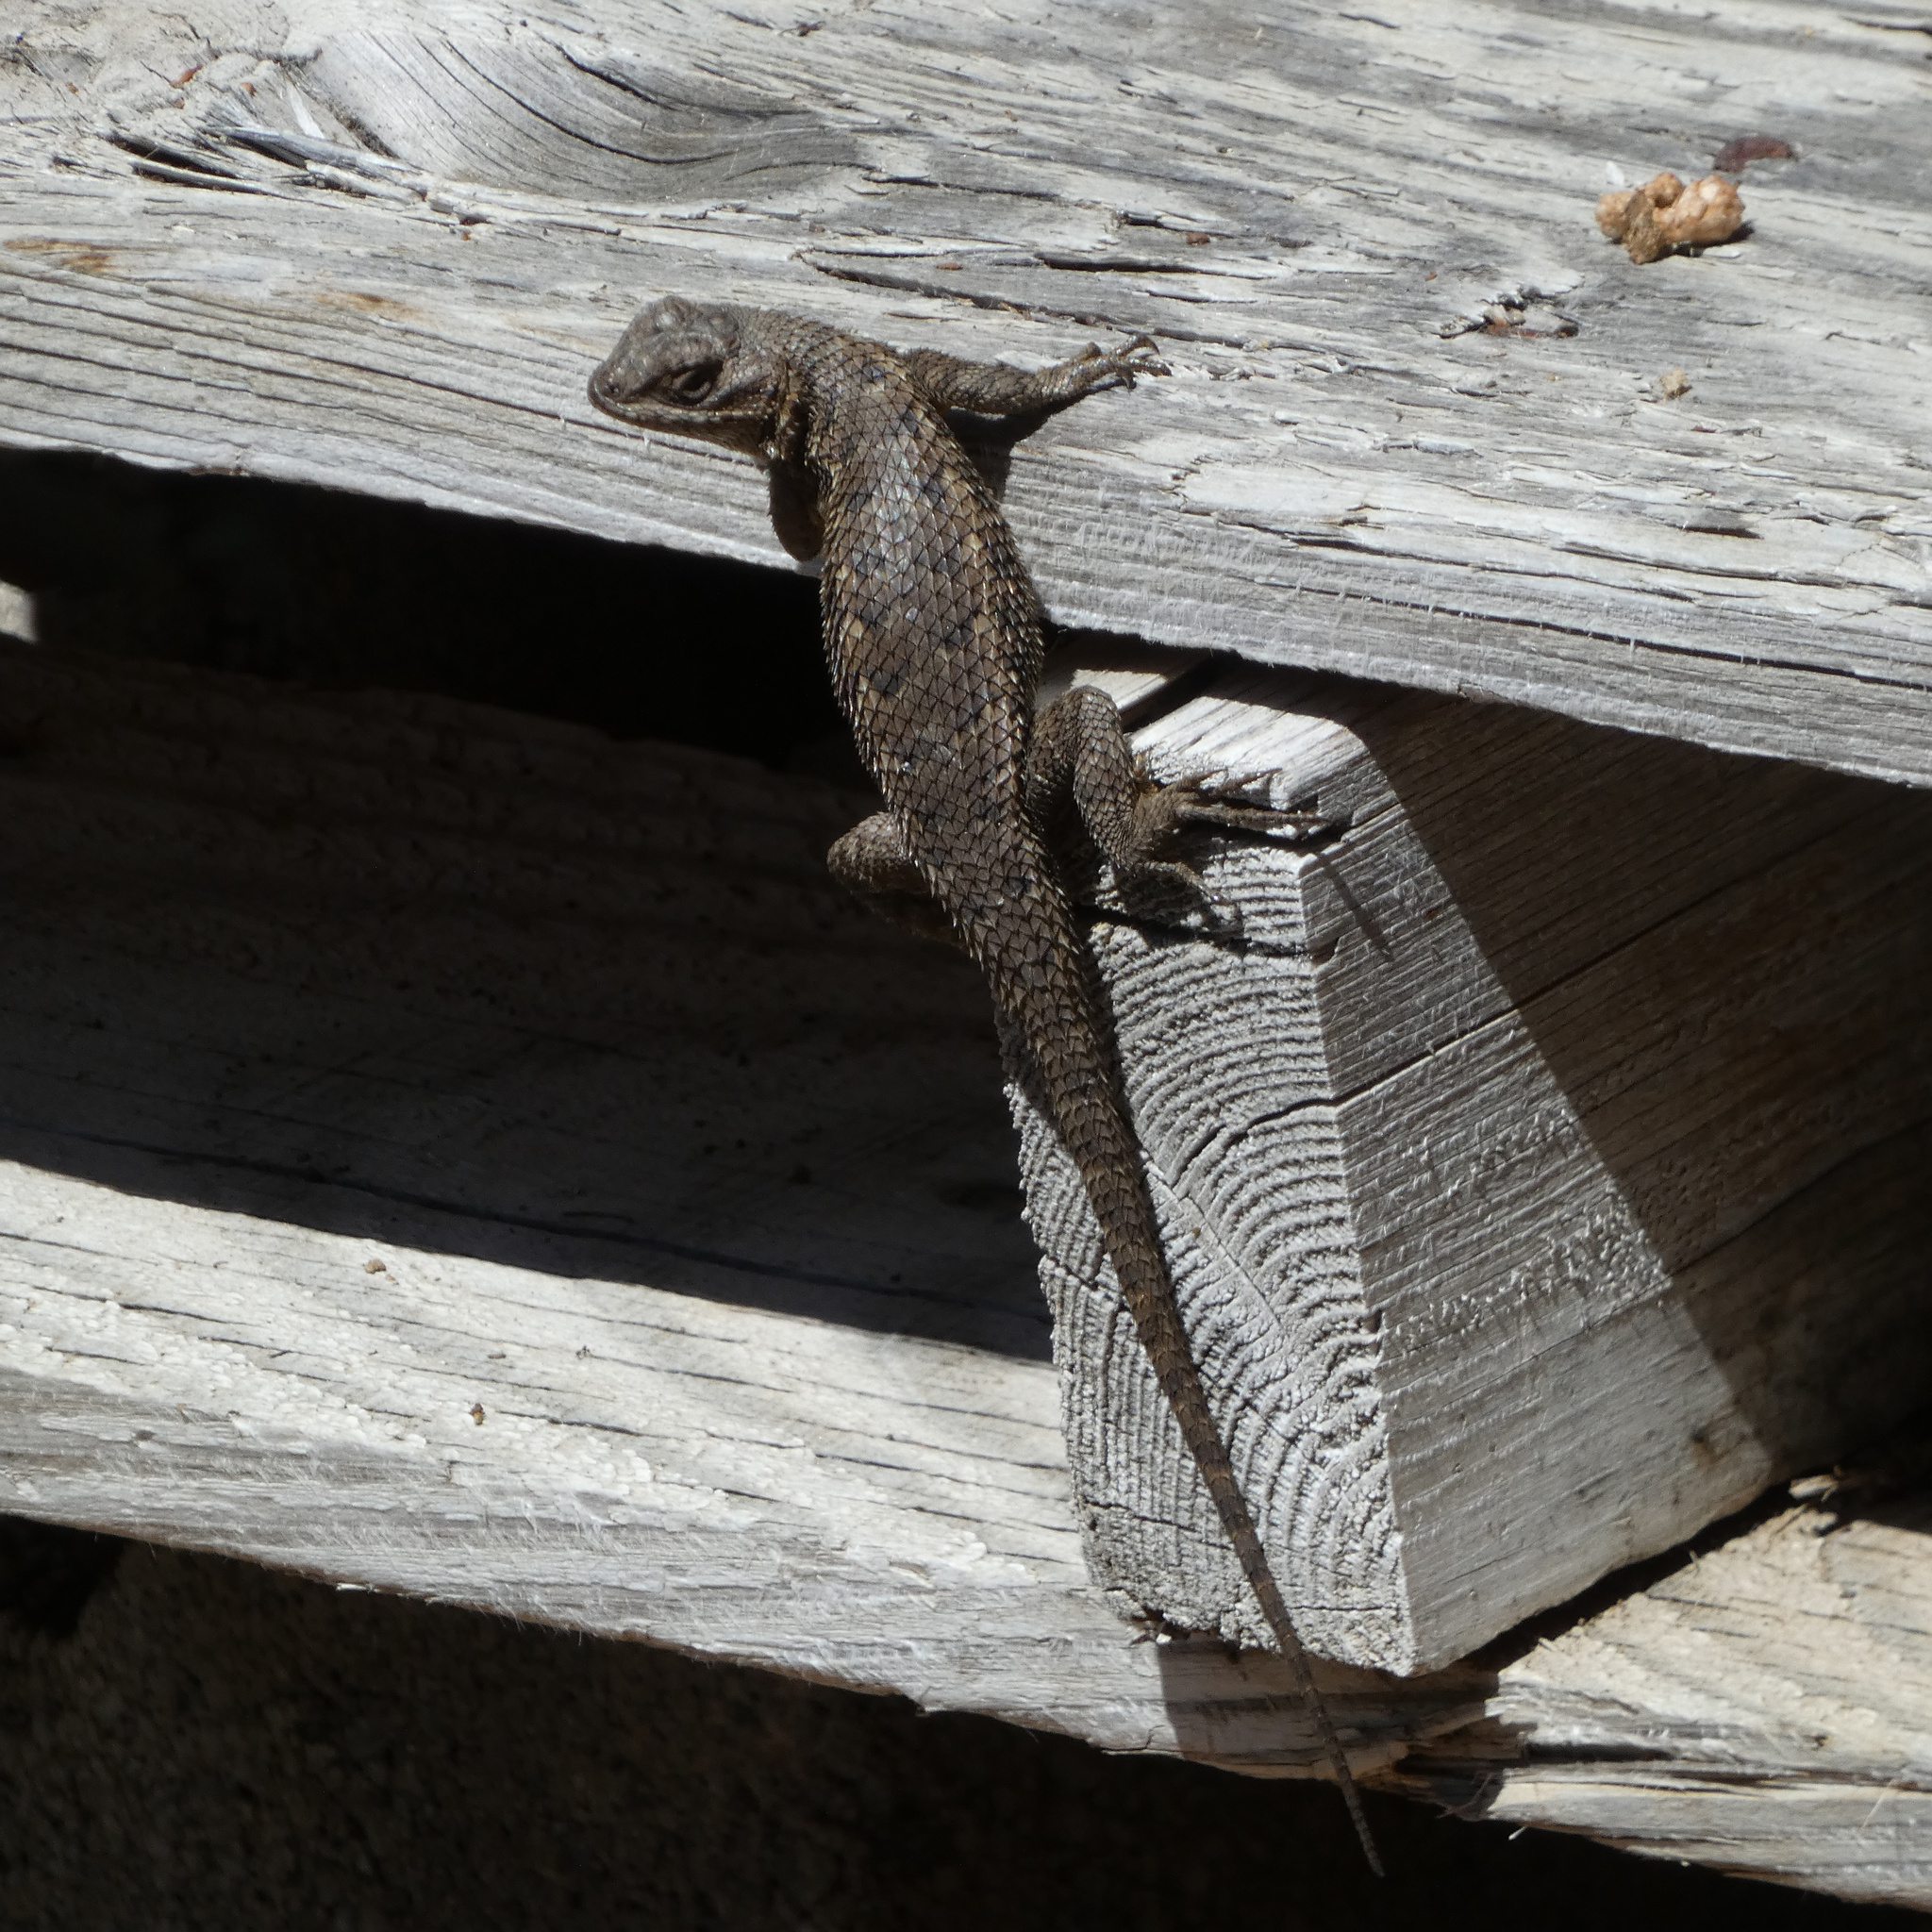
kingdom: Animalia
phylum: Chordata
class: Squamata
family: Phrynosomatidae
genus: Sceloporus
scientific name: Sceloporus occidentalis
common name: Western fence lizard
